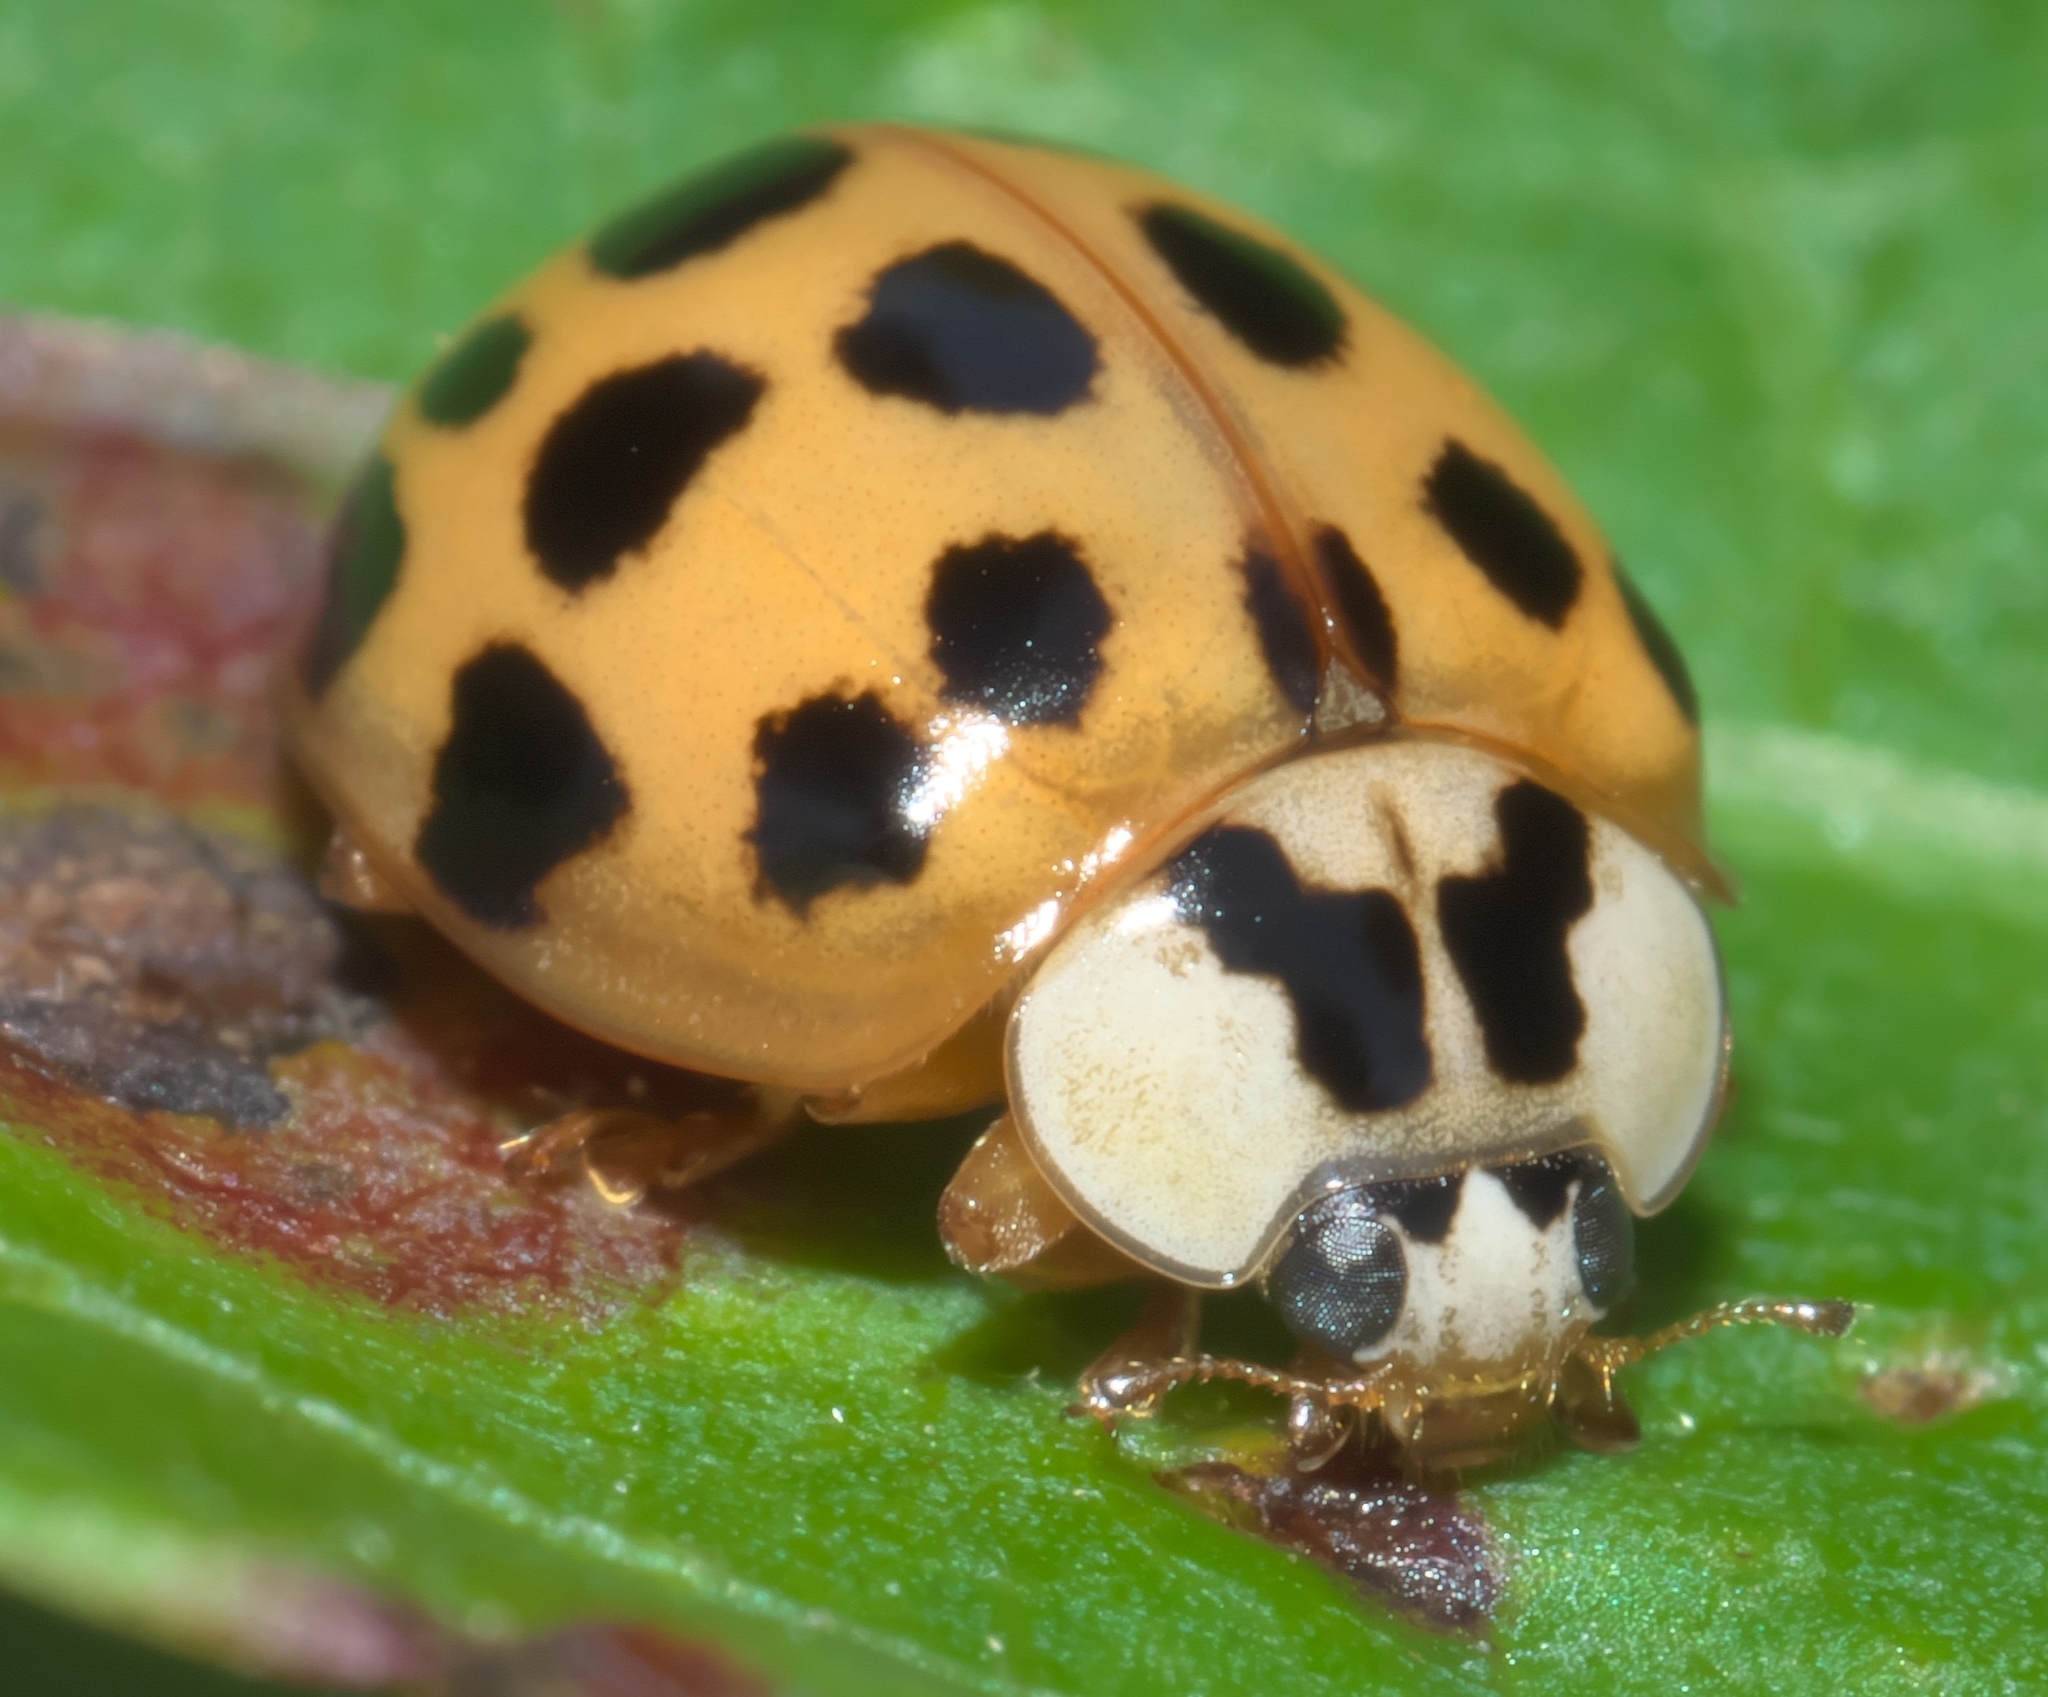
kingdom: Animalia
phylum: Arthropoda
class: Insecta
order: Coleoptera
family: Coccinellidae
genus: Harmonia
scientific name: Harmonia axyridis
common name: Harlequin ladybird
